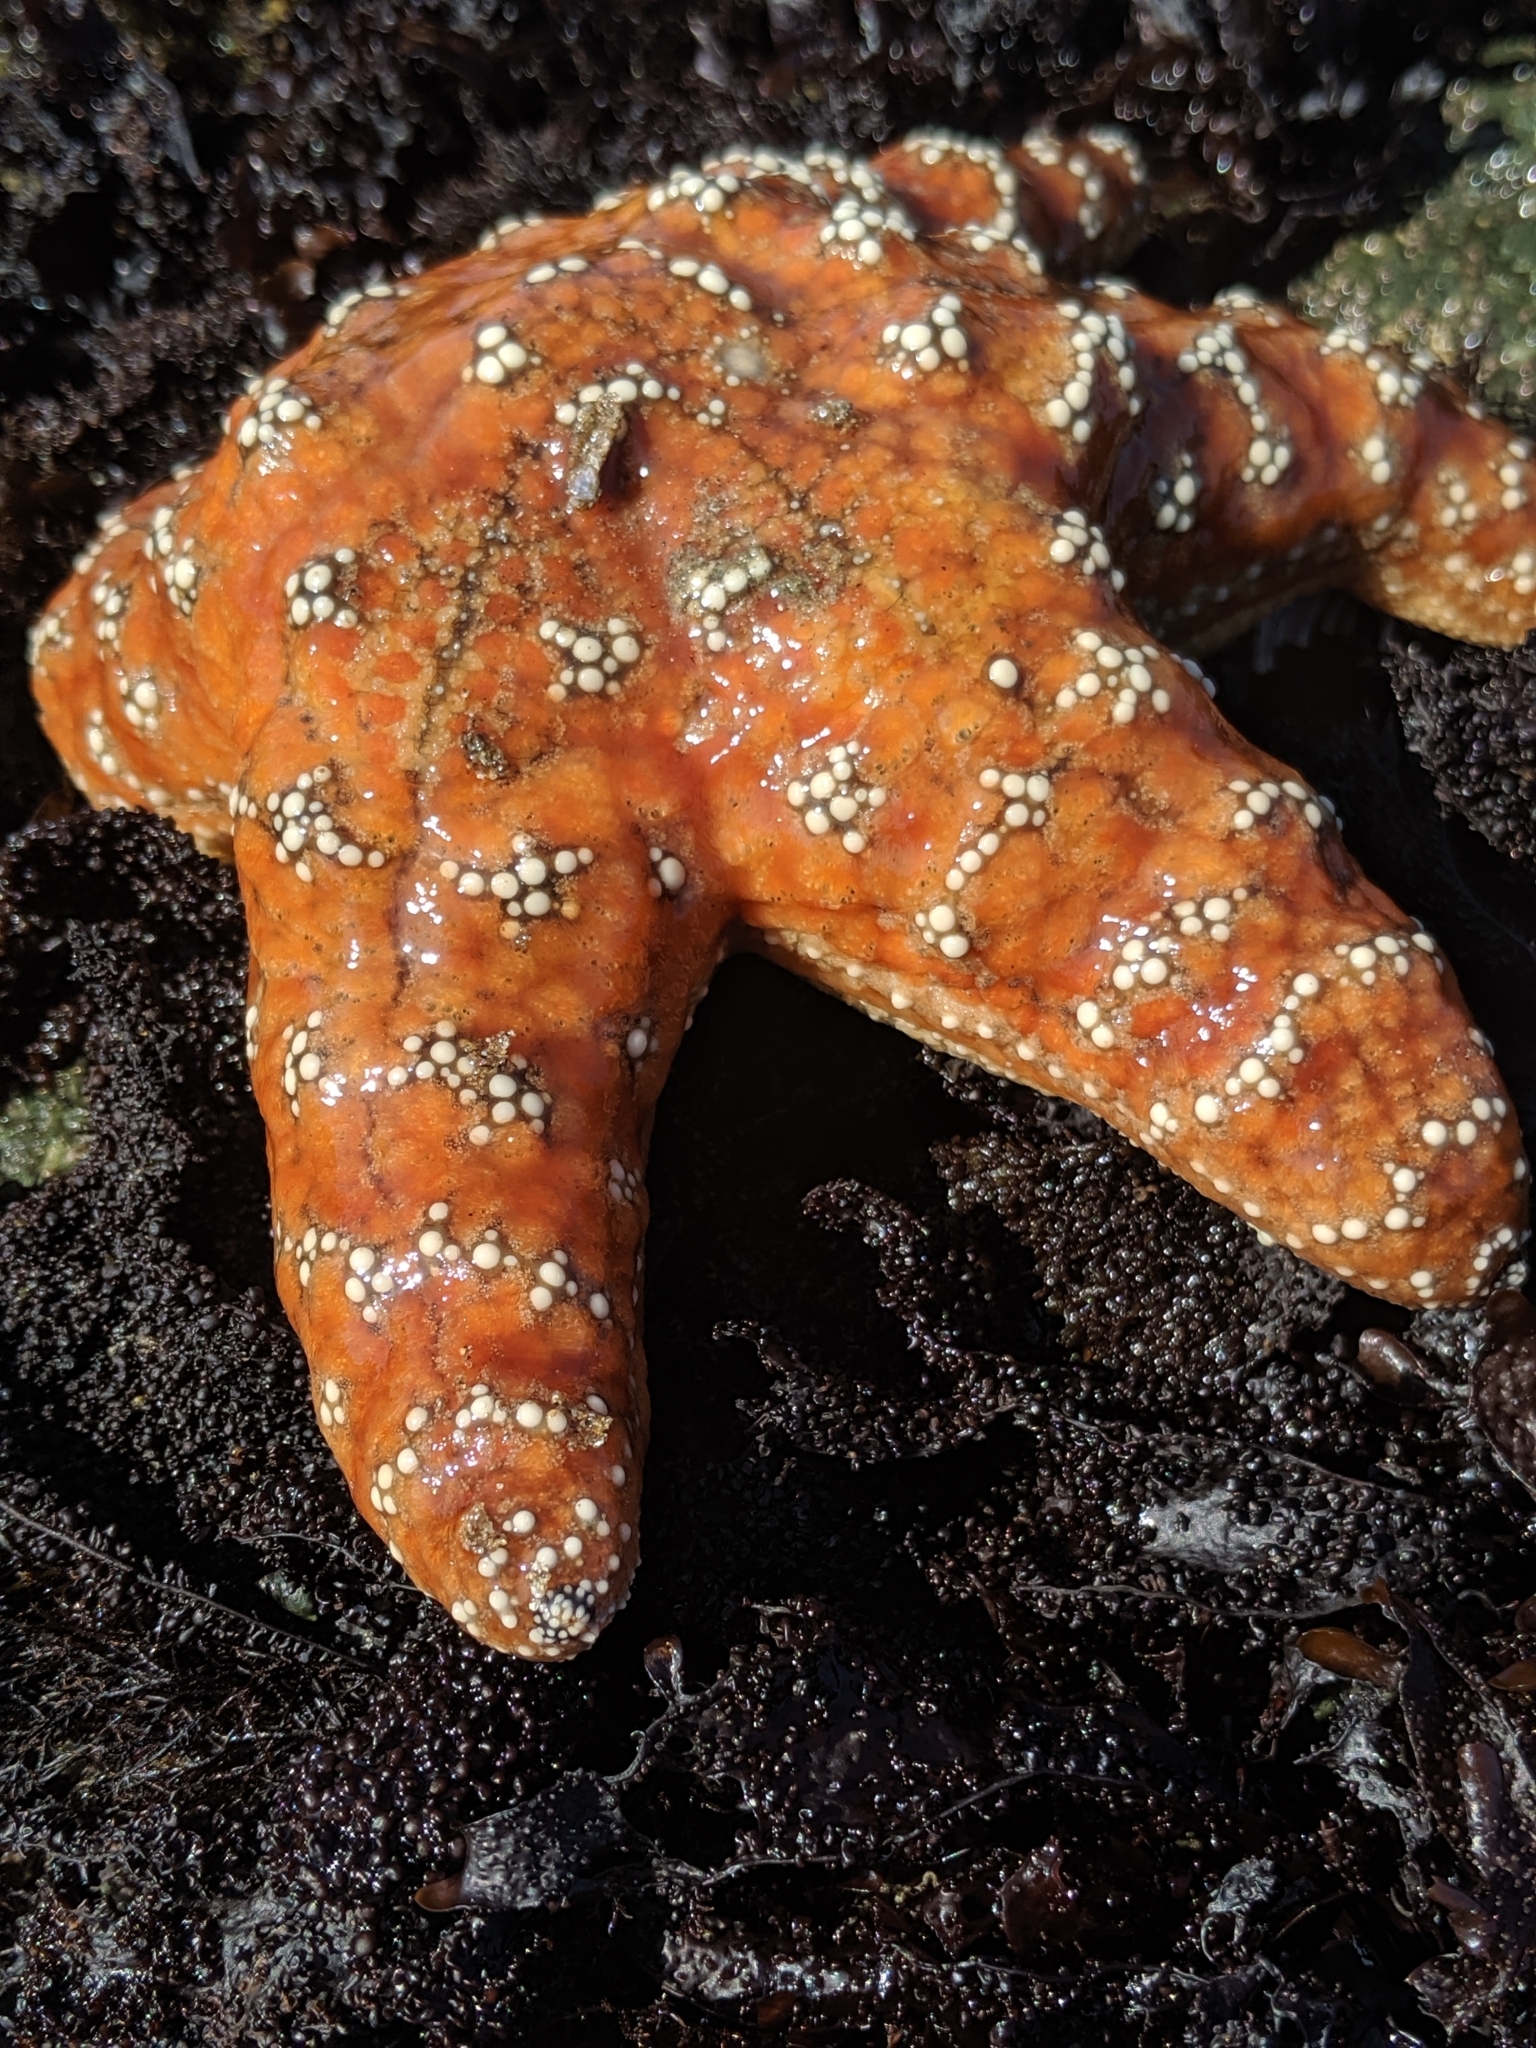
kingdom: Animalia
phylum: Echinodermata
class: Asteroidea
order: Forcipulatida
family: Asteriidae
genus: Pisaster
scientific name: Pisaster ochraceus
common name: Ochre stars
